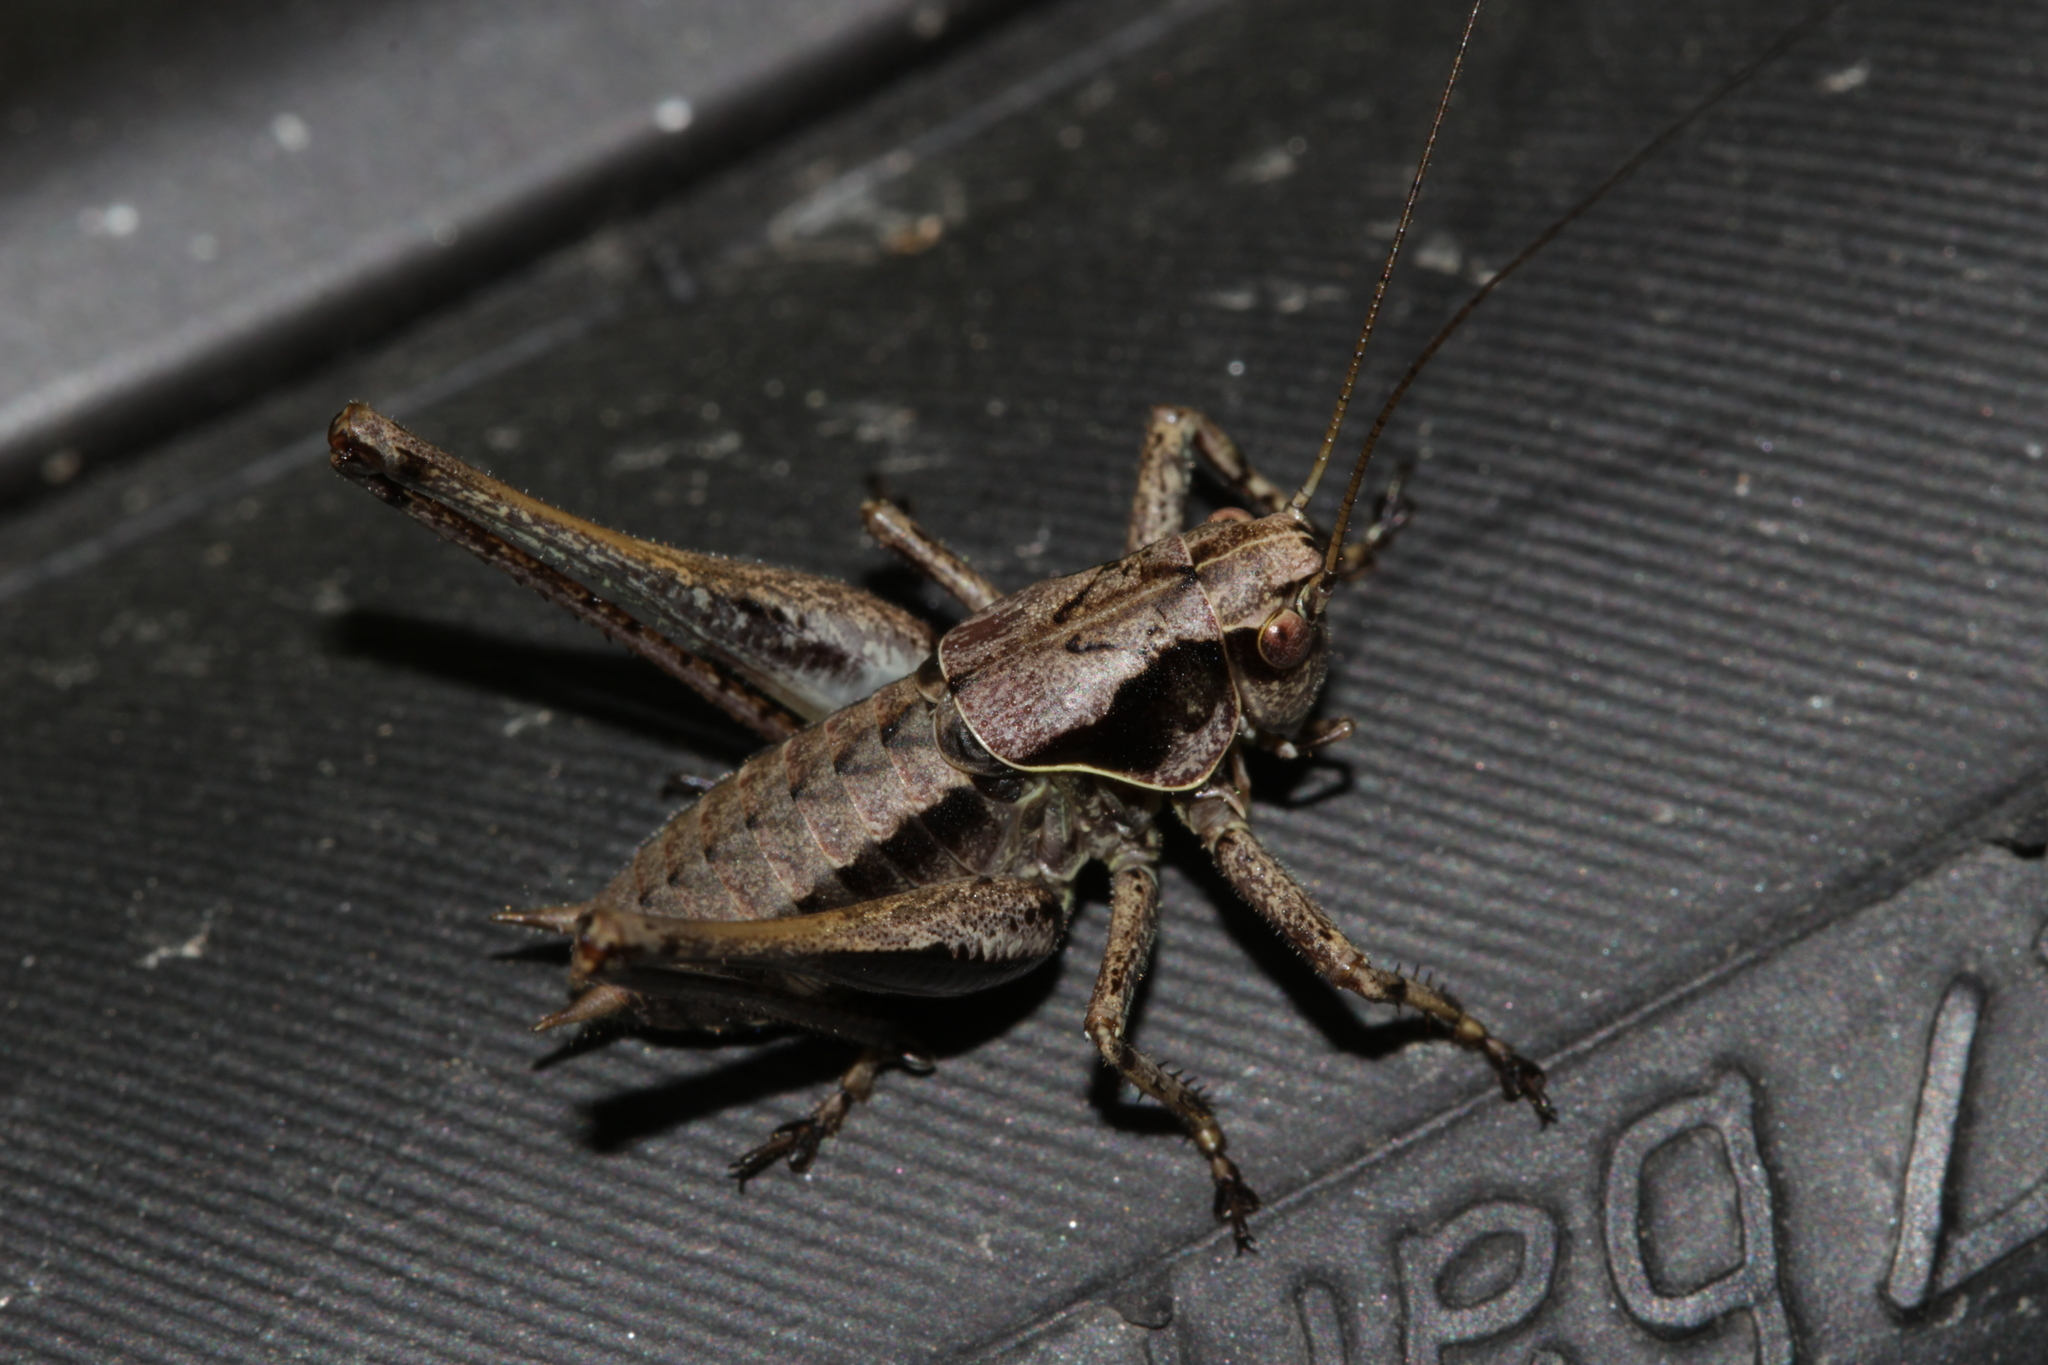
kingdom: Animalia
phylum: Arthropoda
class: Insecta
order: Orthoptera
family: Tettigoniidae
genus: Pholidoptera
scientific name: Pholidoptera griseoaptera
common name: Dark bush-cricket
